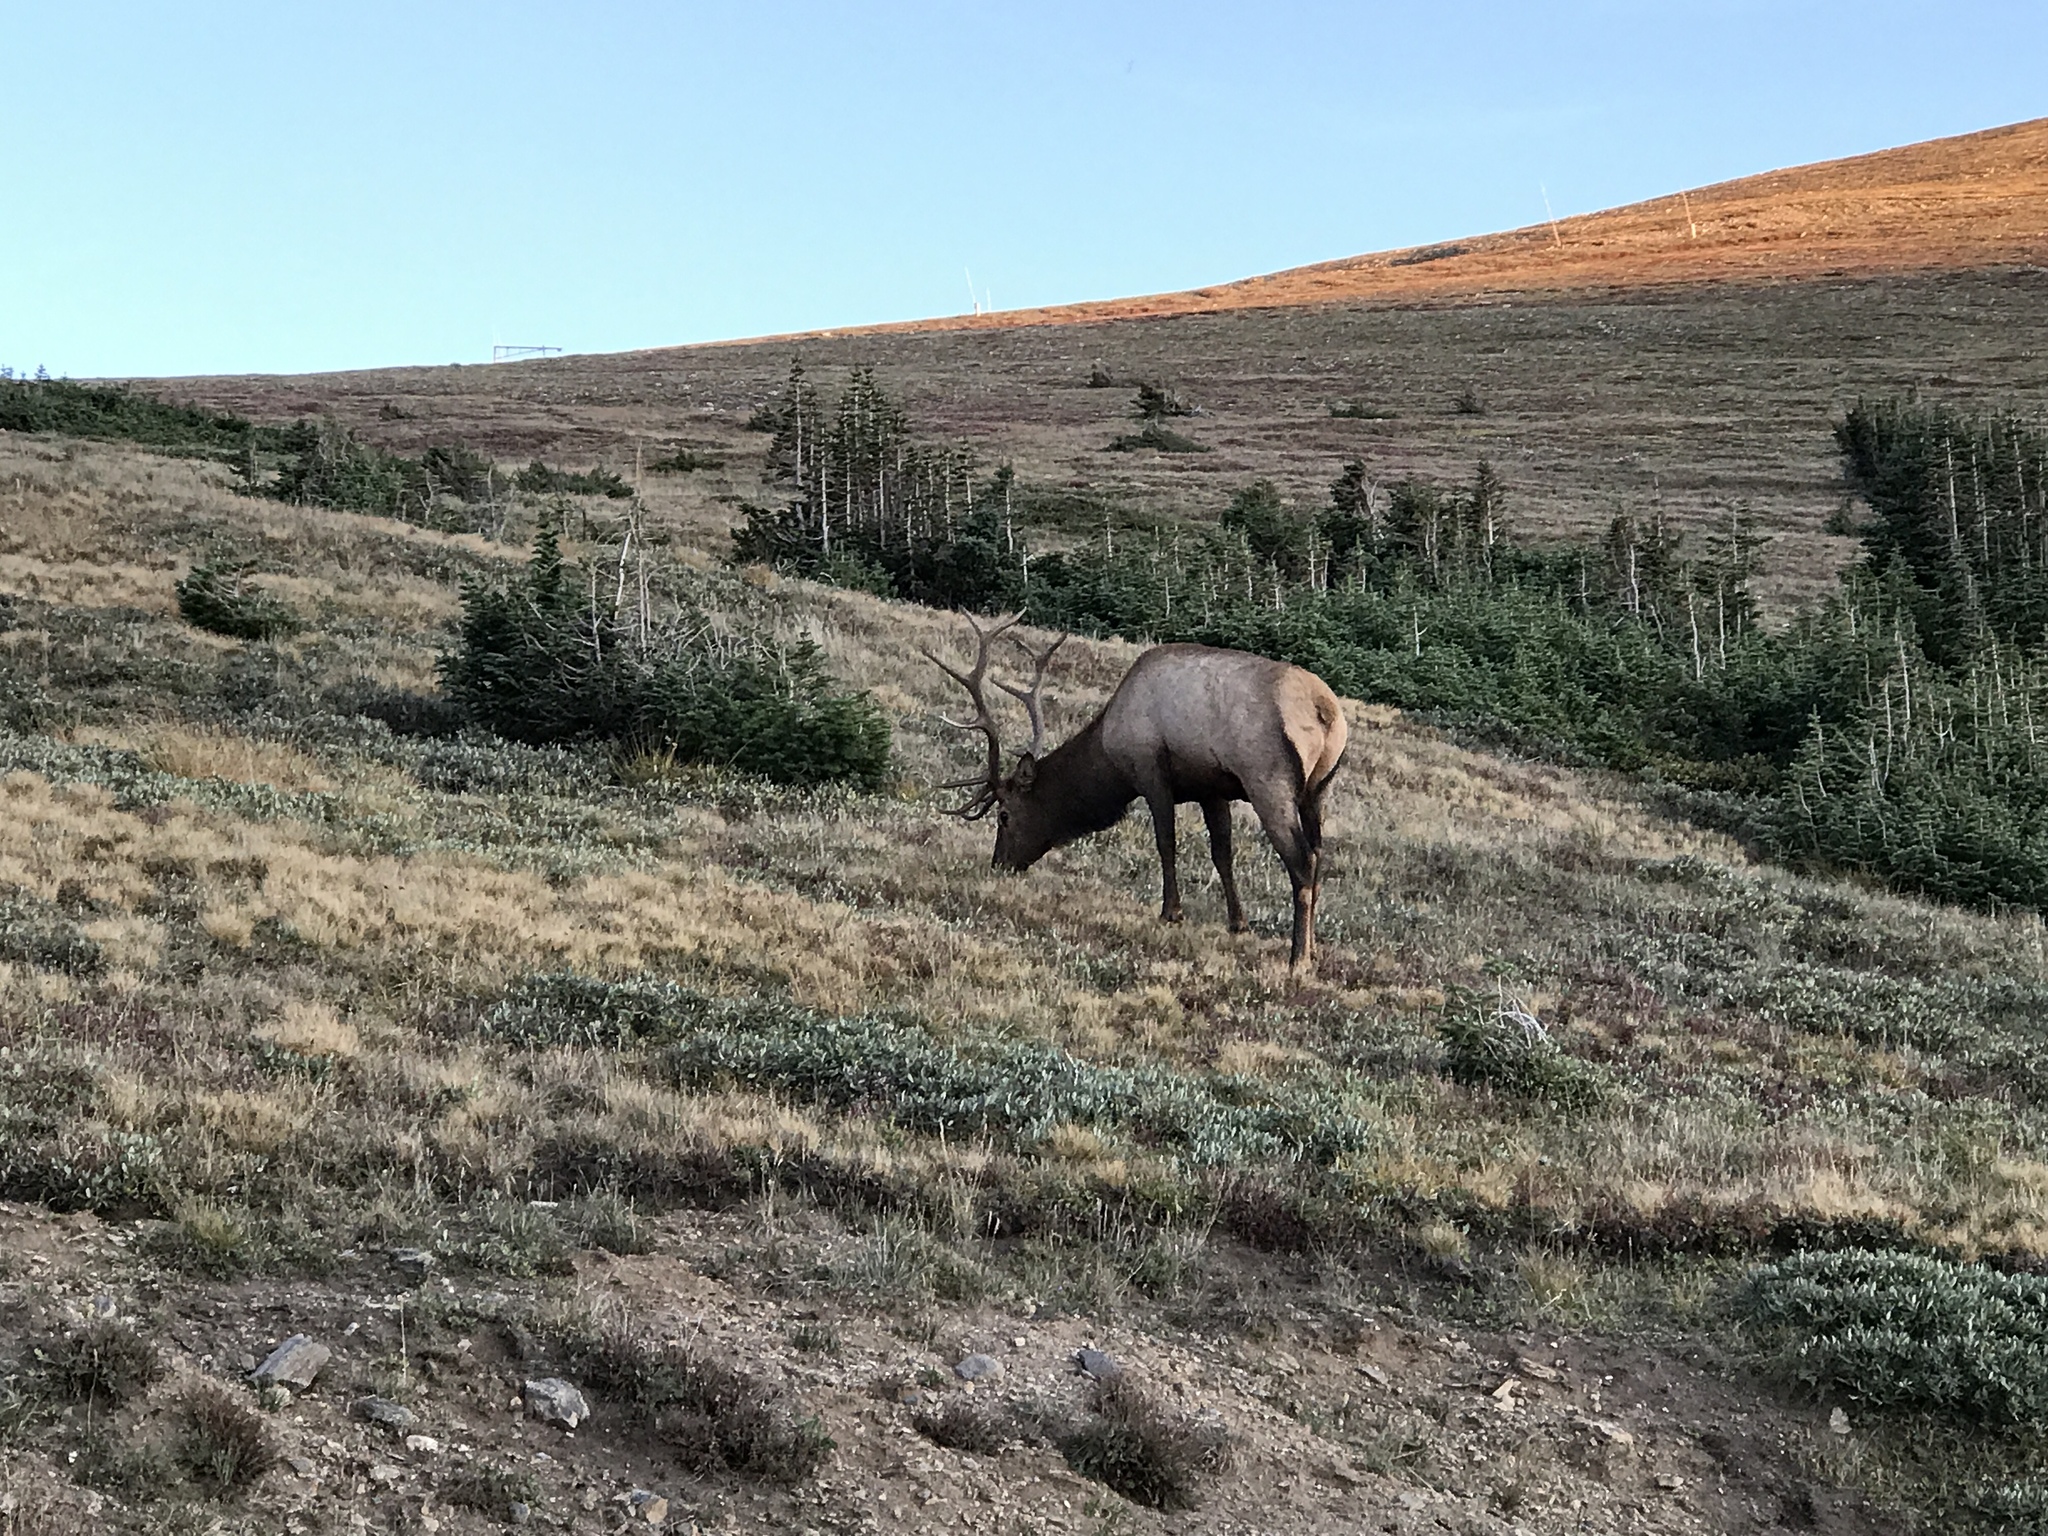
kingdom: Animalia
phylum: Chordata
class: Mammalia
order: Artiodactyla
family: Cervidae
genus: Cervus
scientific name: Cervus elaphus
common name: Red deer
